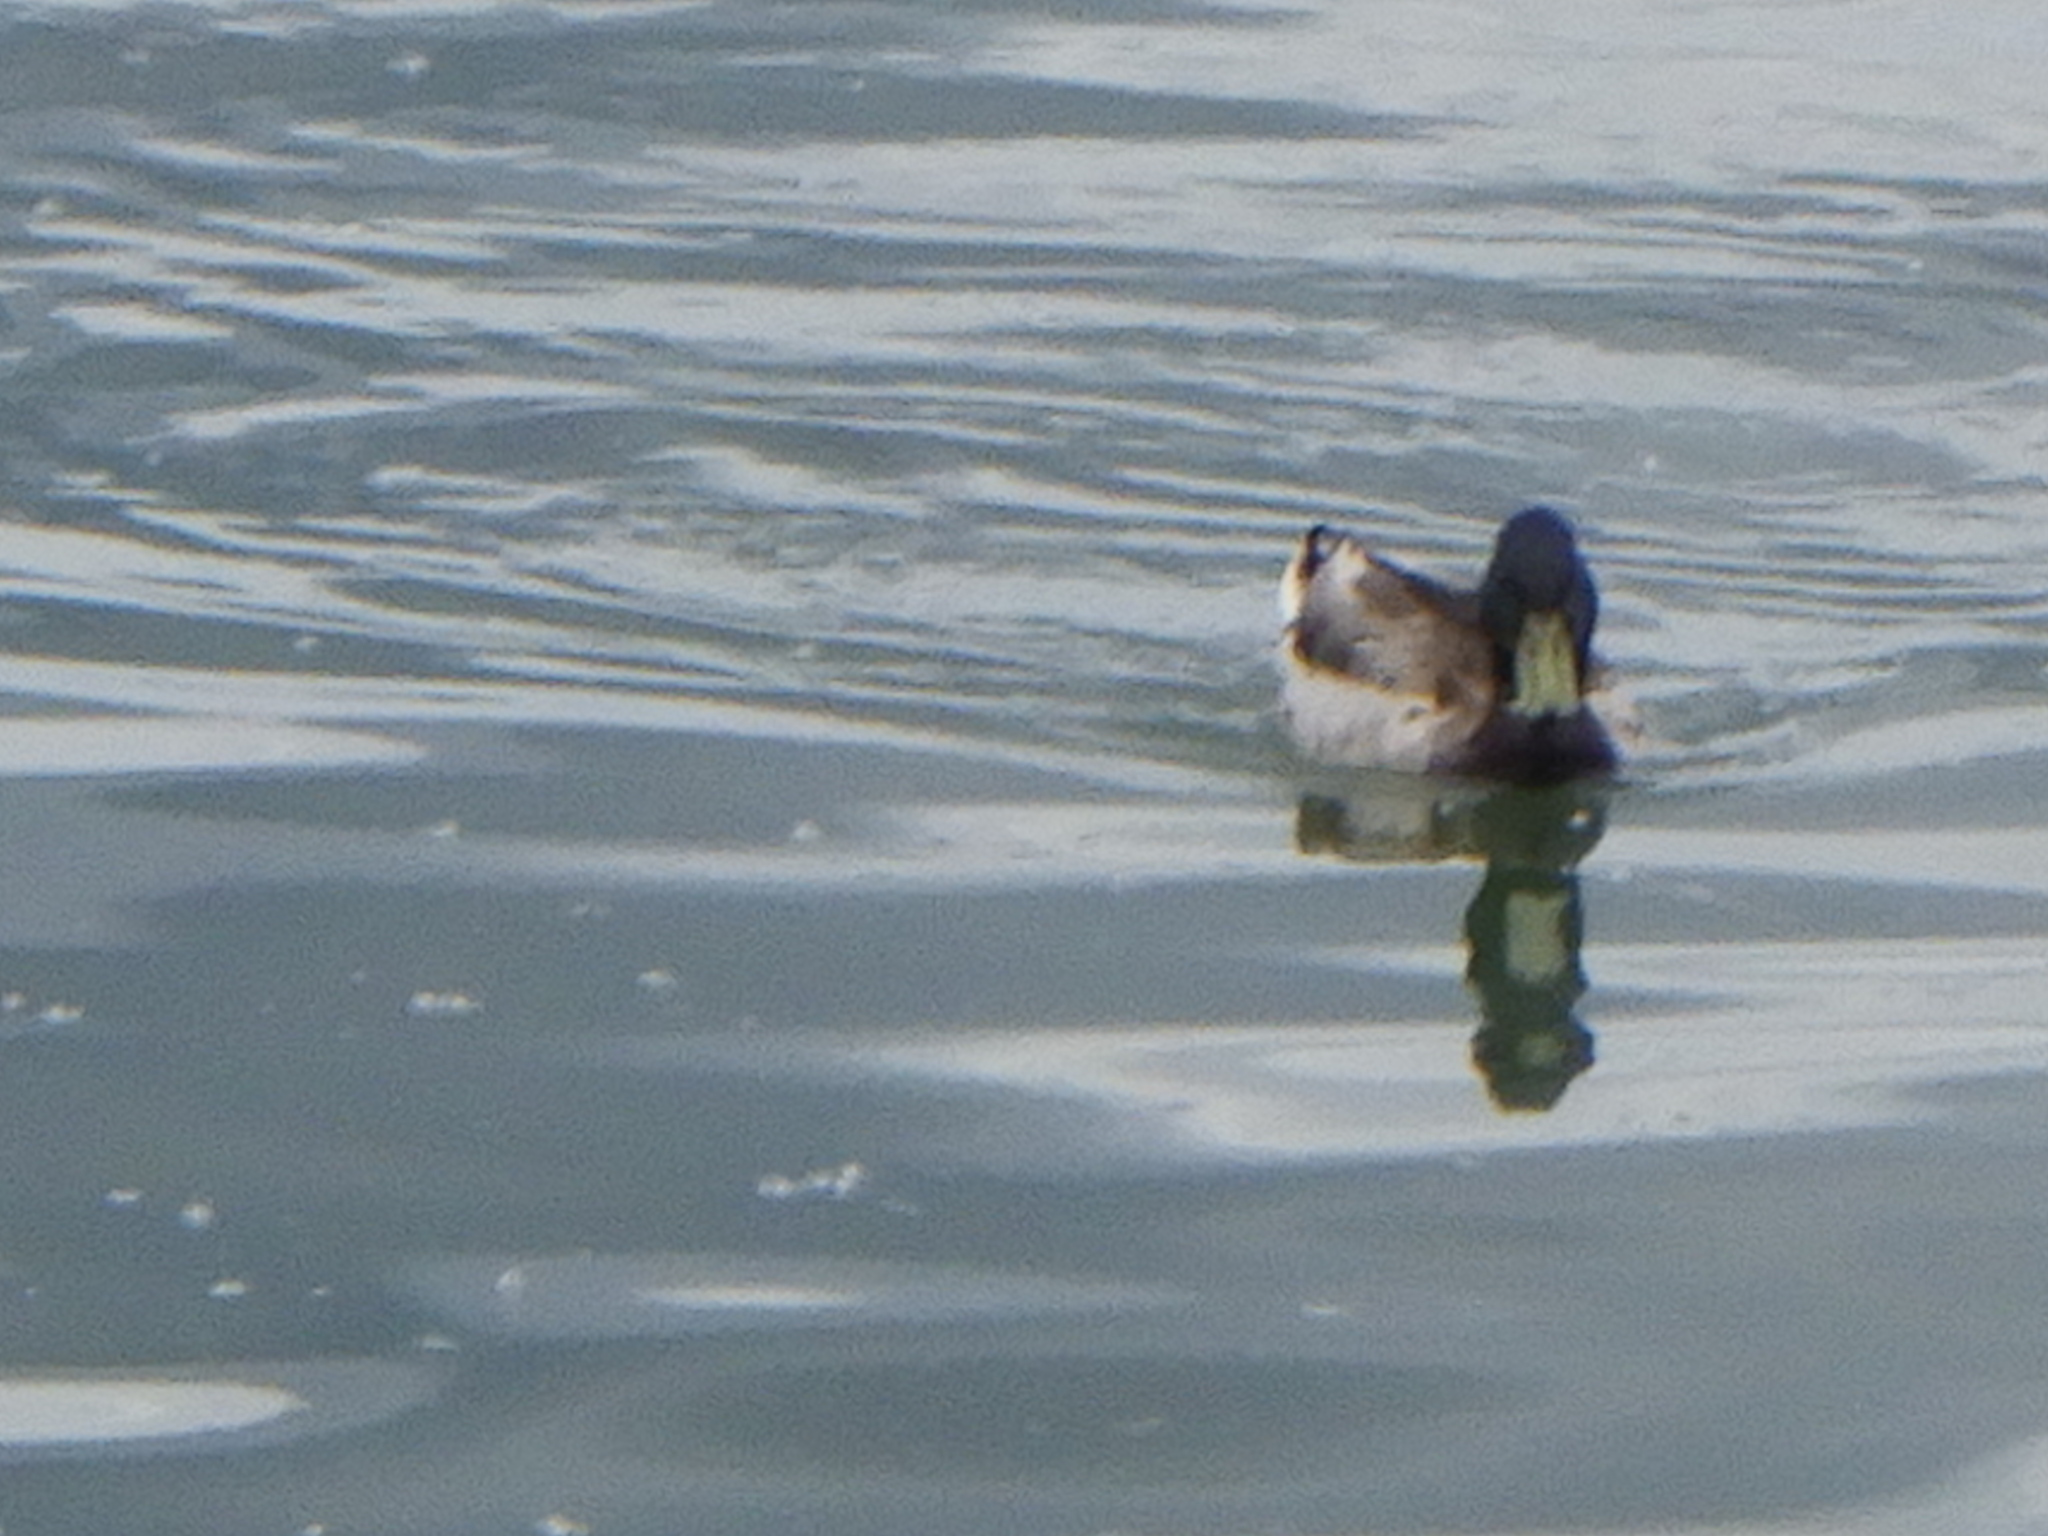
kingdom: Animalia
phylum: Chordata
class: Aves
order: Anseriformes
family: Anatidae
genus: Anas
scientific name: Anas platyrhynchos
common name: Mallard
